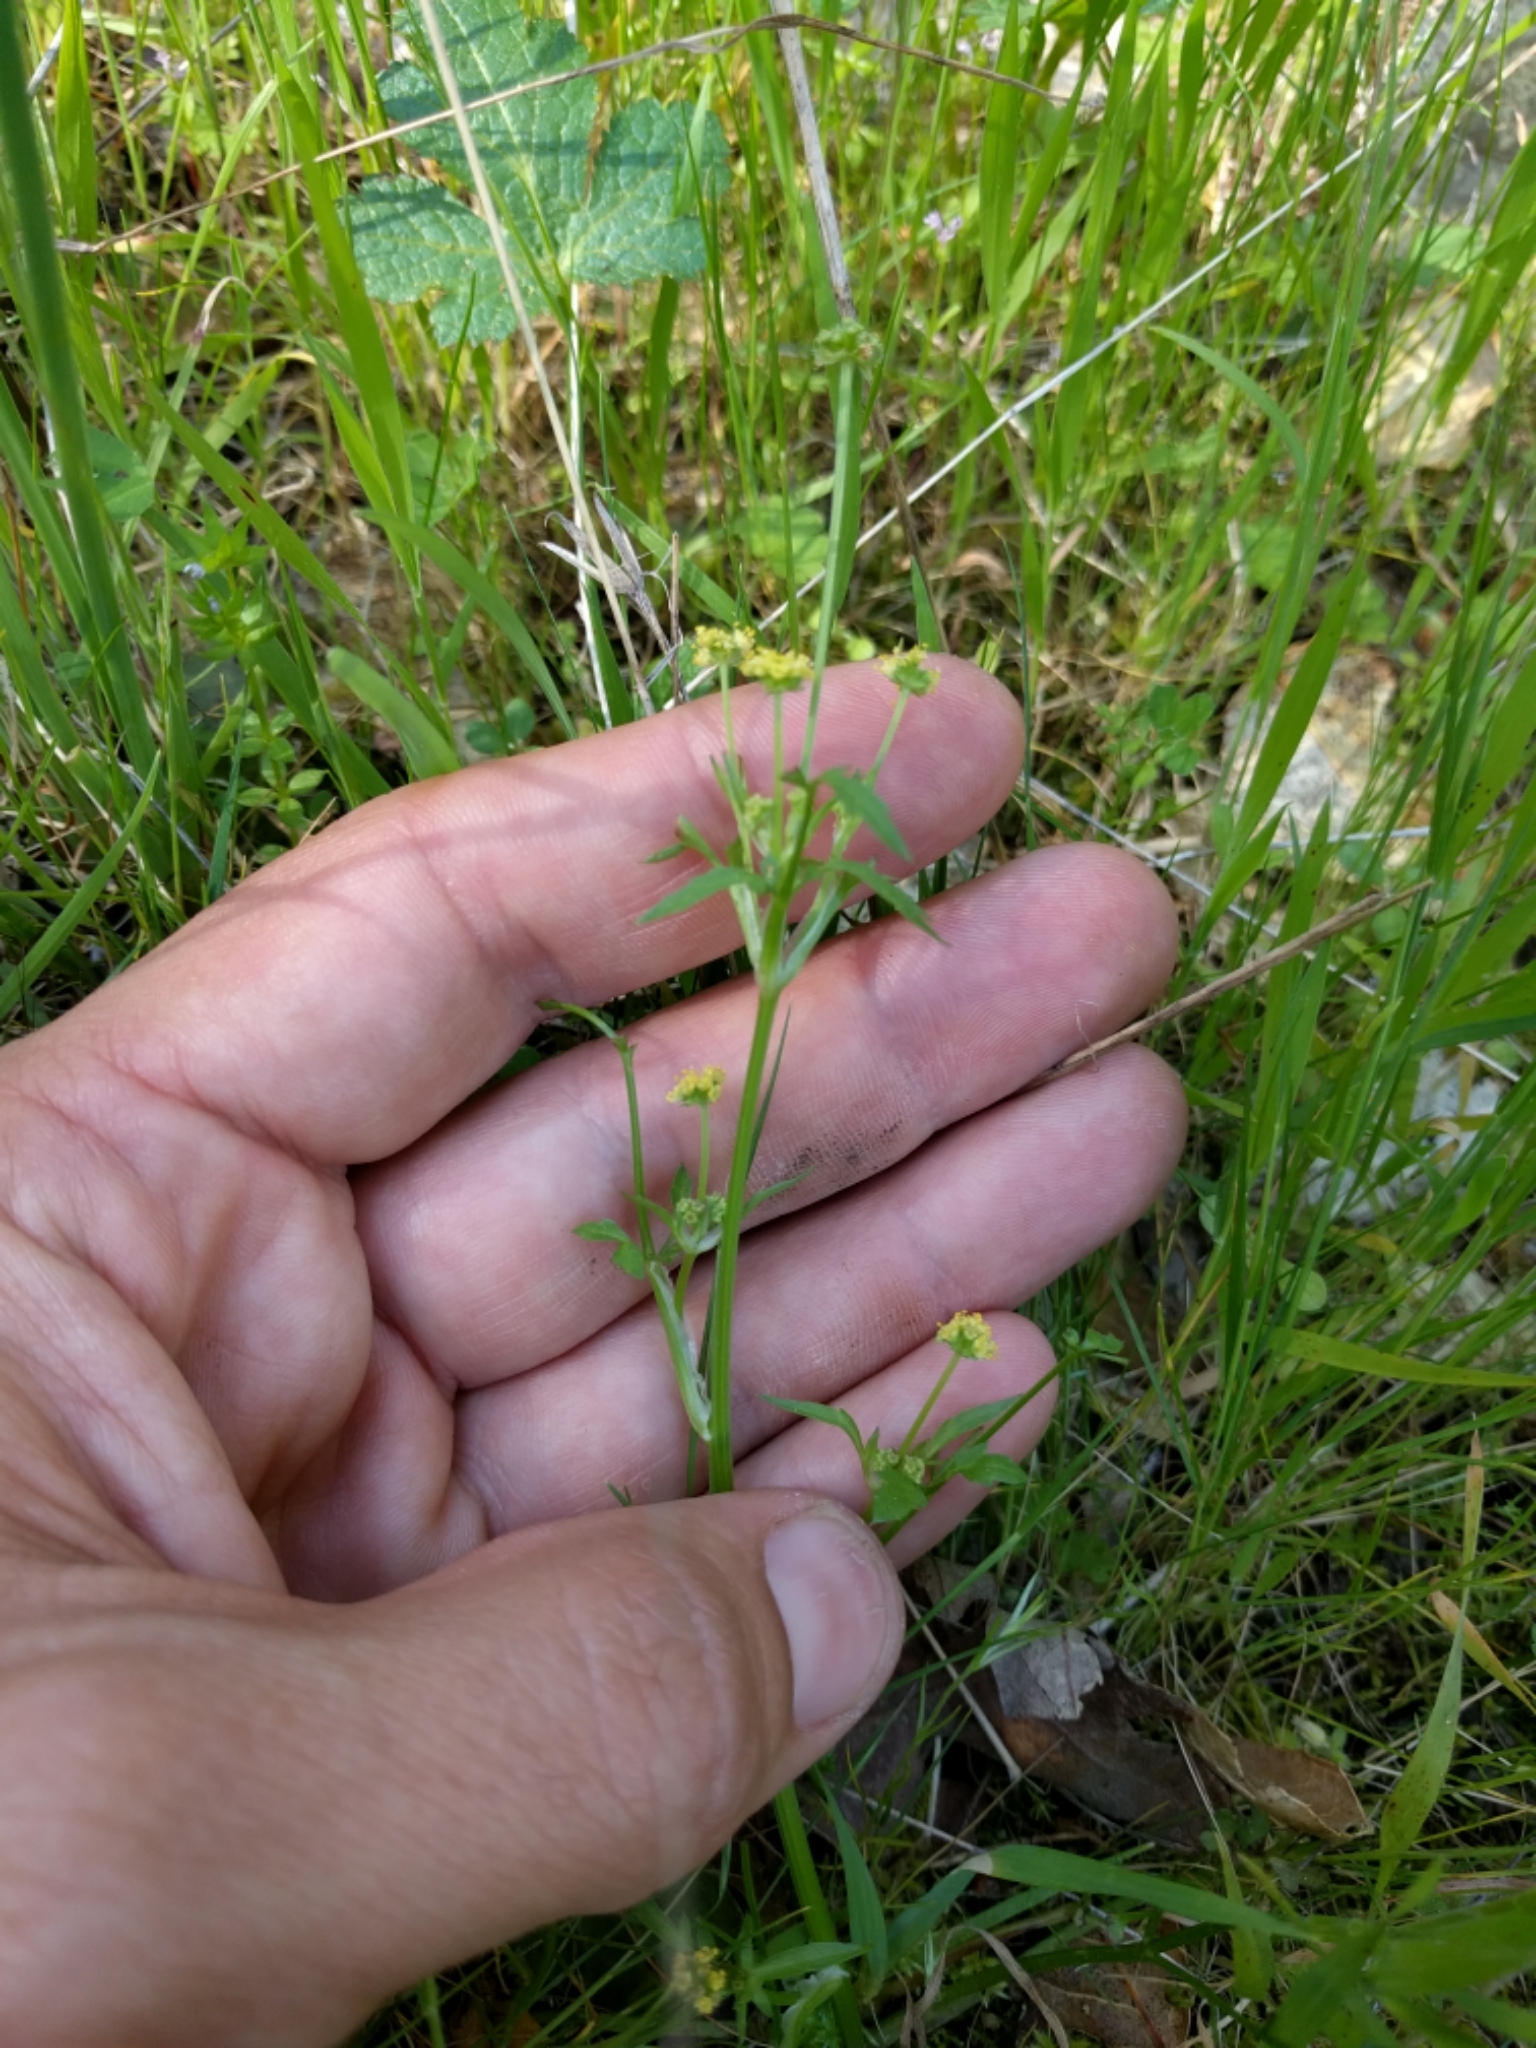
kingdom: Plantae
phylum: Tracheophyta
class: Magnoliopsida
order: Apiales
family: Apiaceae
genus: Sanicula
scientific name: Sanicula bipinnata
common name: Poison sanicle
